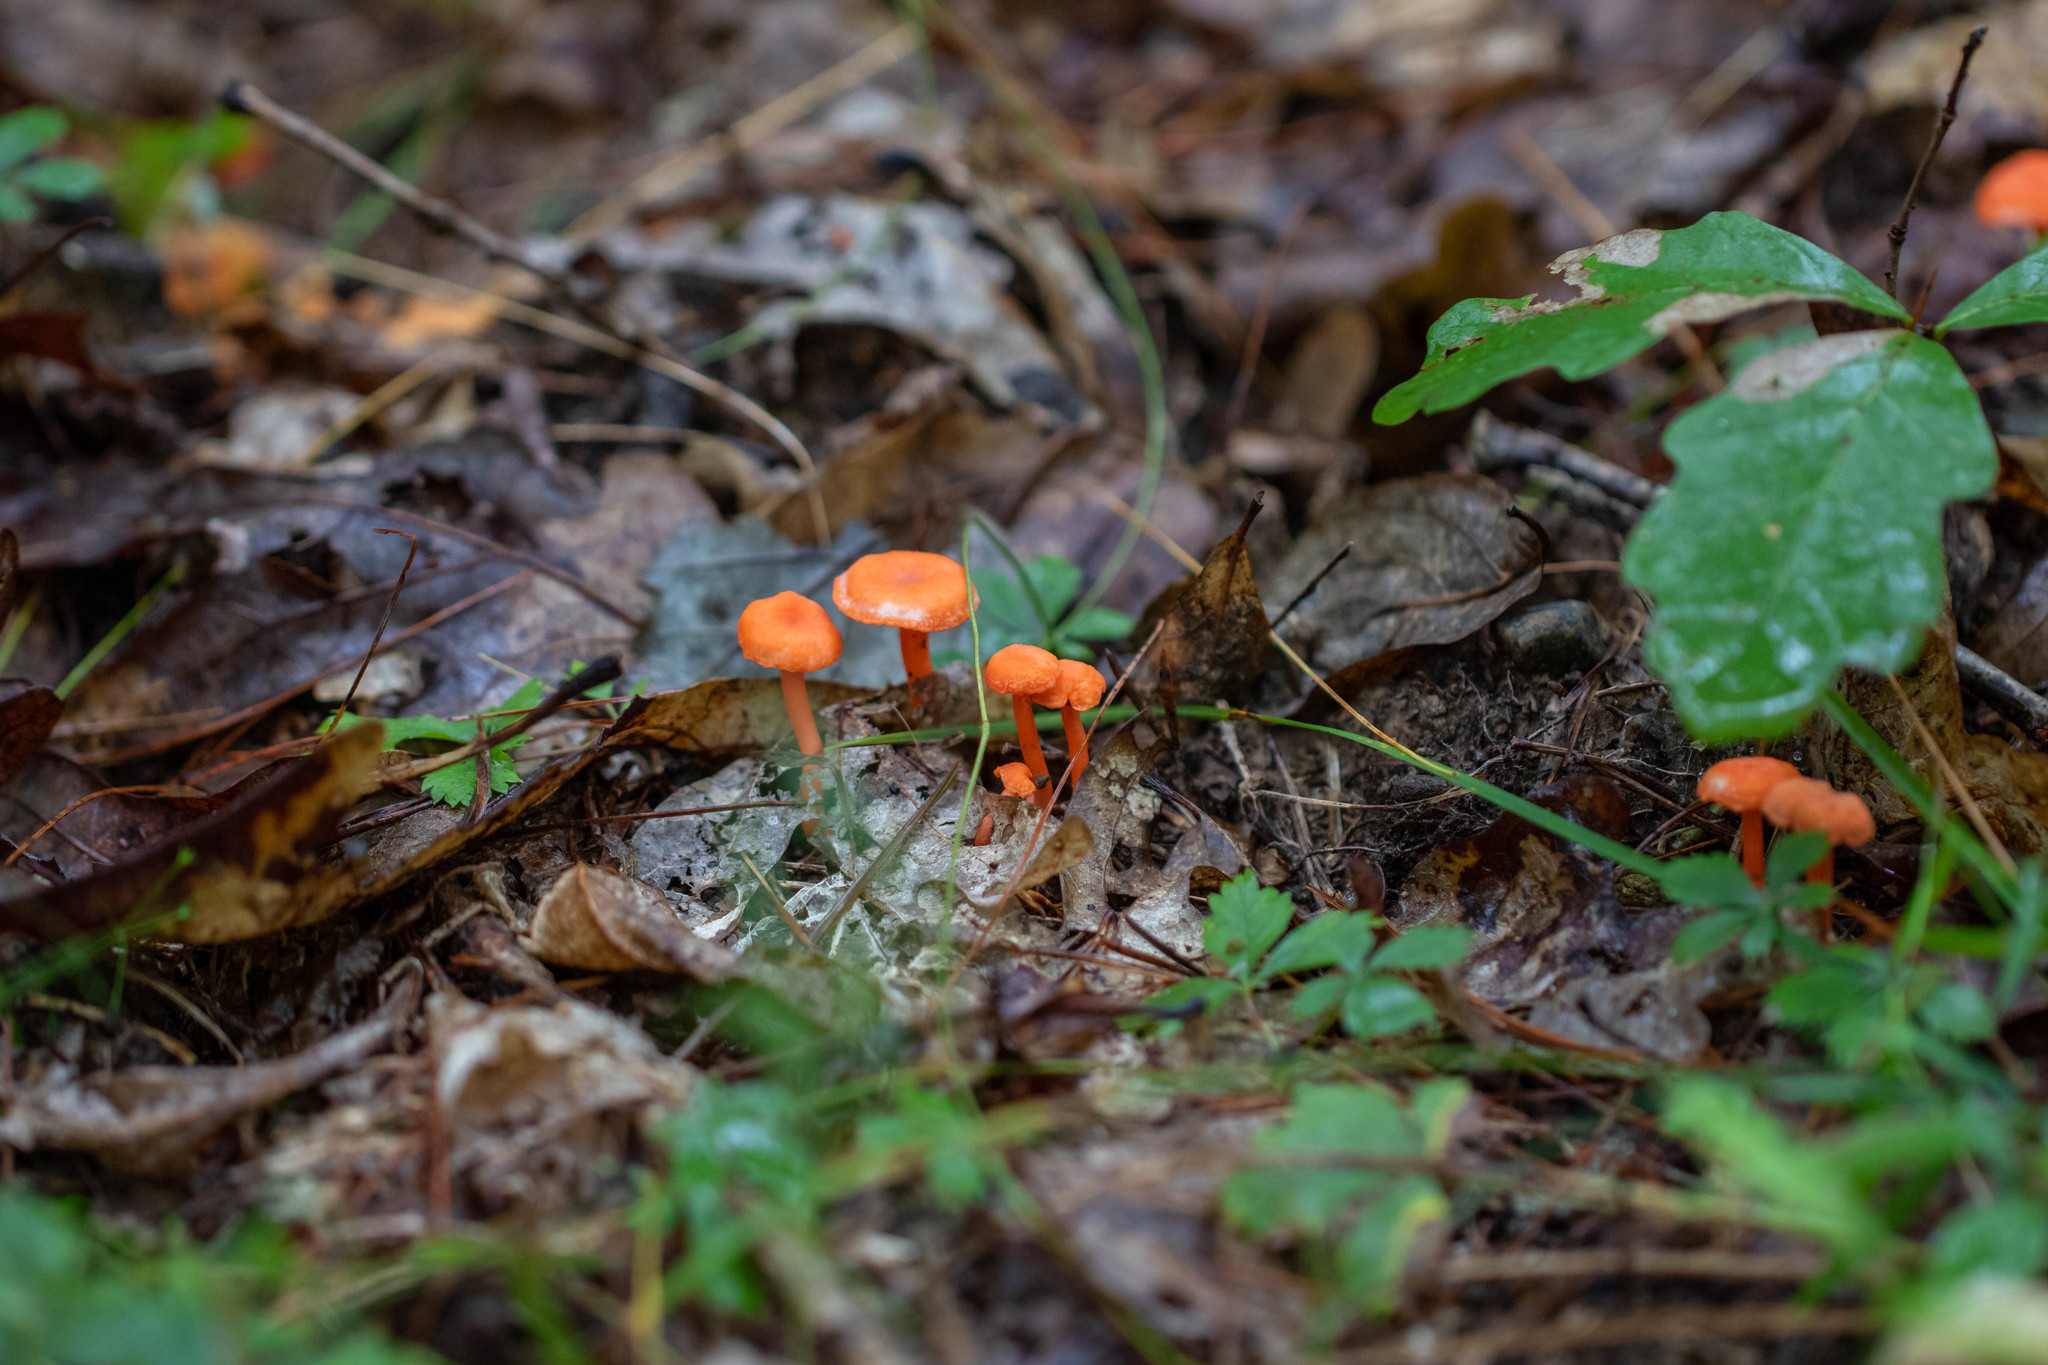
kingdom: Fungi
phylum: Basidiomycota
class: Agaricomycetes
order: Cantharellales
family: Hydnaceae
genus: Cantharellus
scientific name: Cantharellus cinnabarinus
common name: Cinnabar chanterelle
